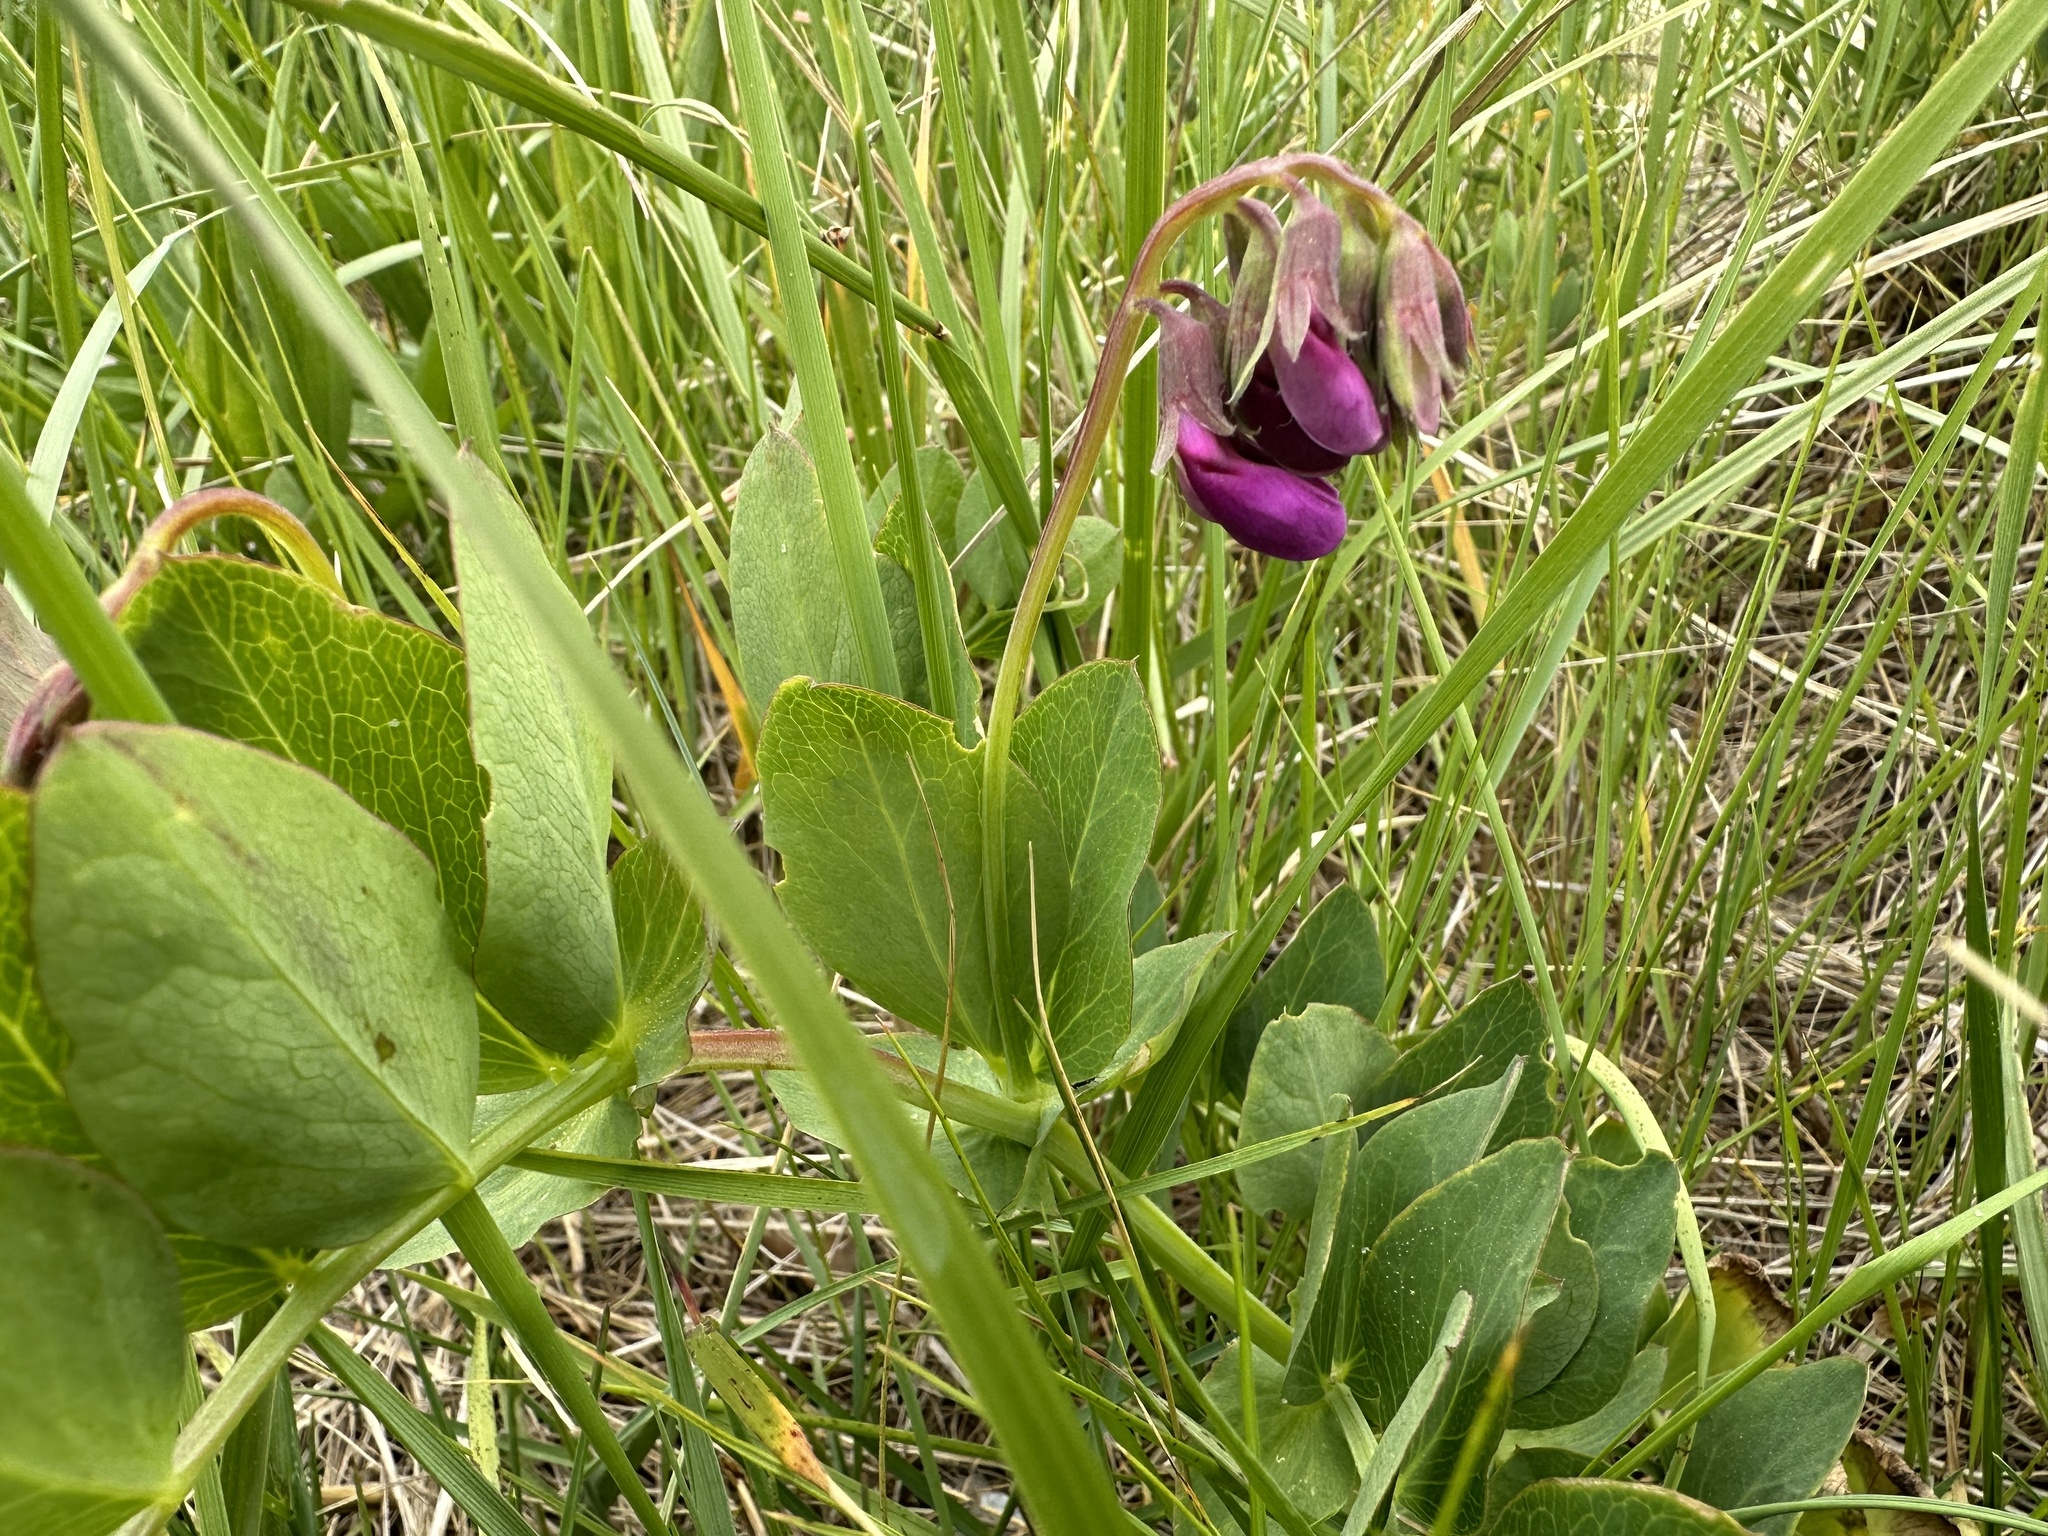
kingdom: Plantae
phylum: Tracheophyta
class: Magnoliopsida
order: Fabales
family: Fabaceae
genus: Lathyrus
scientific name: Lathyrus japonicus
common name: Sea pea
